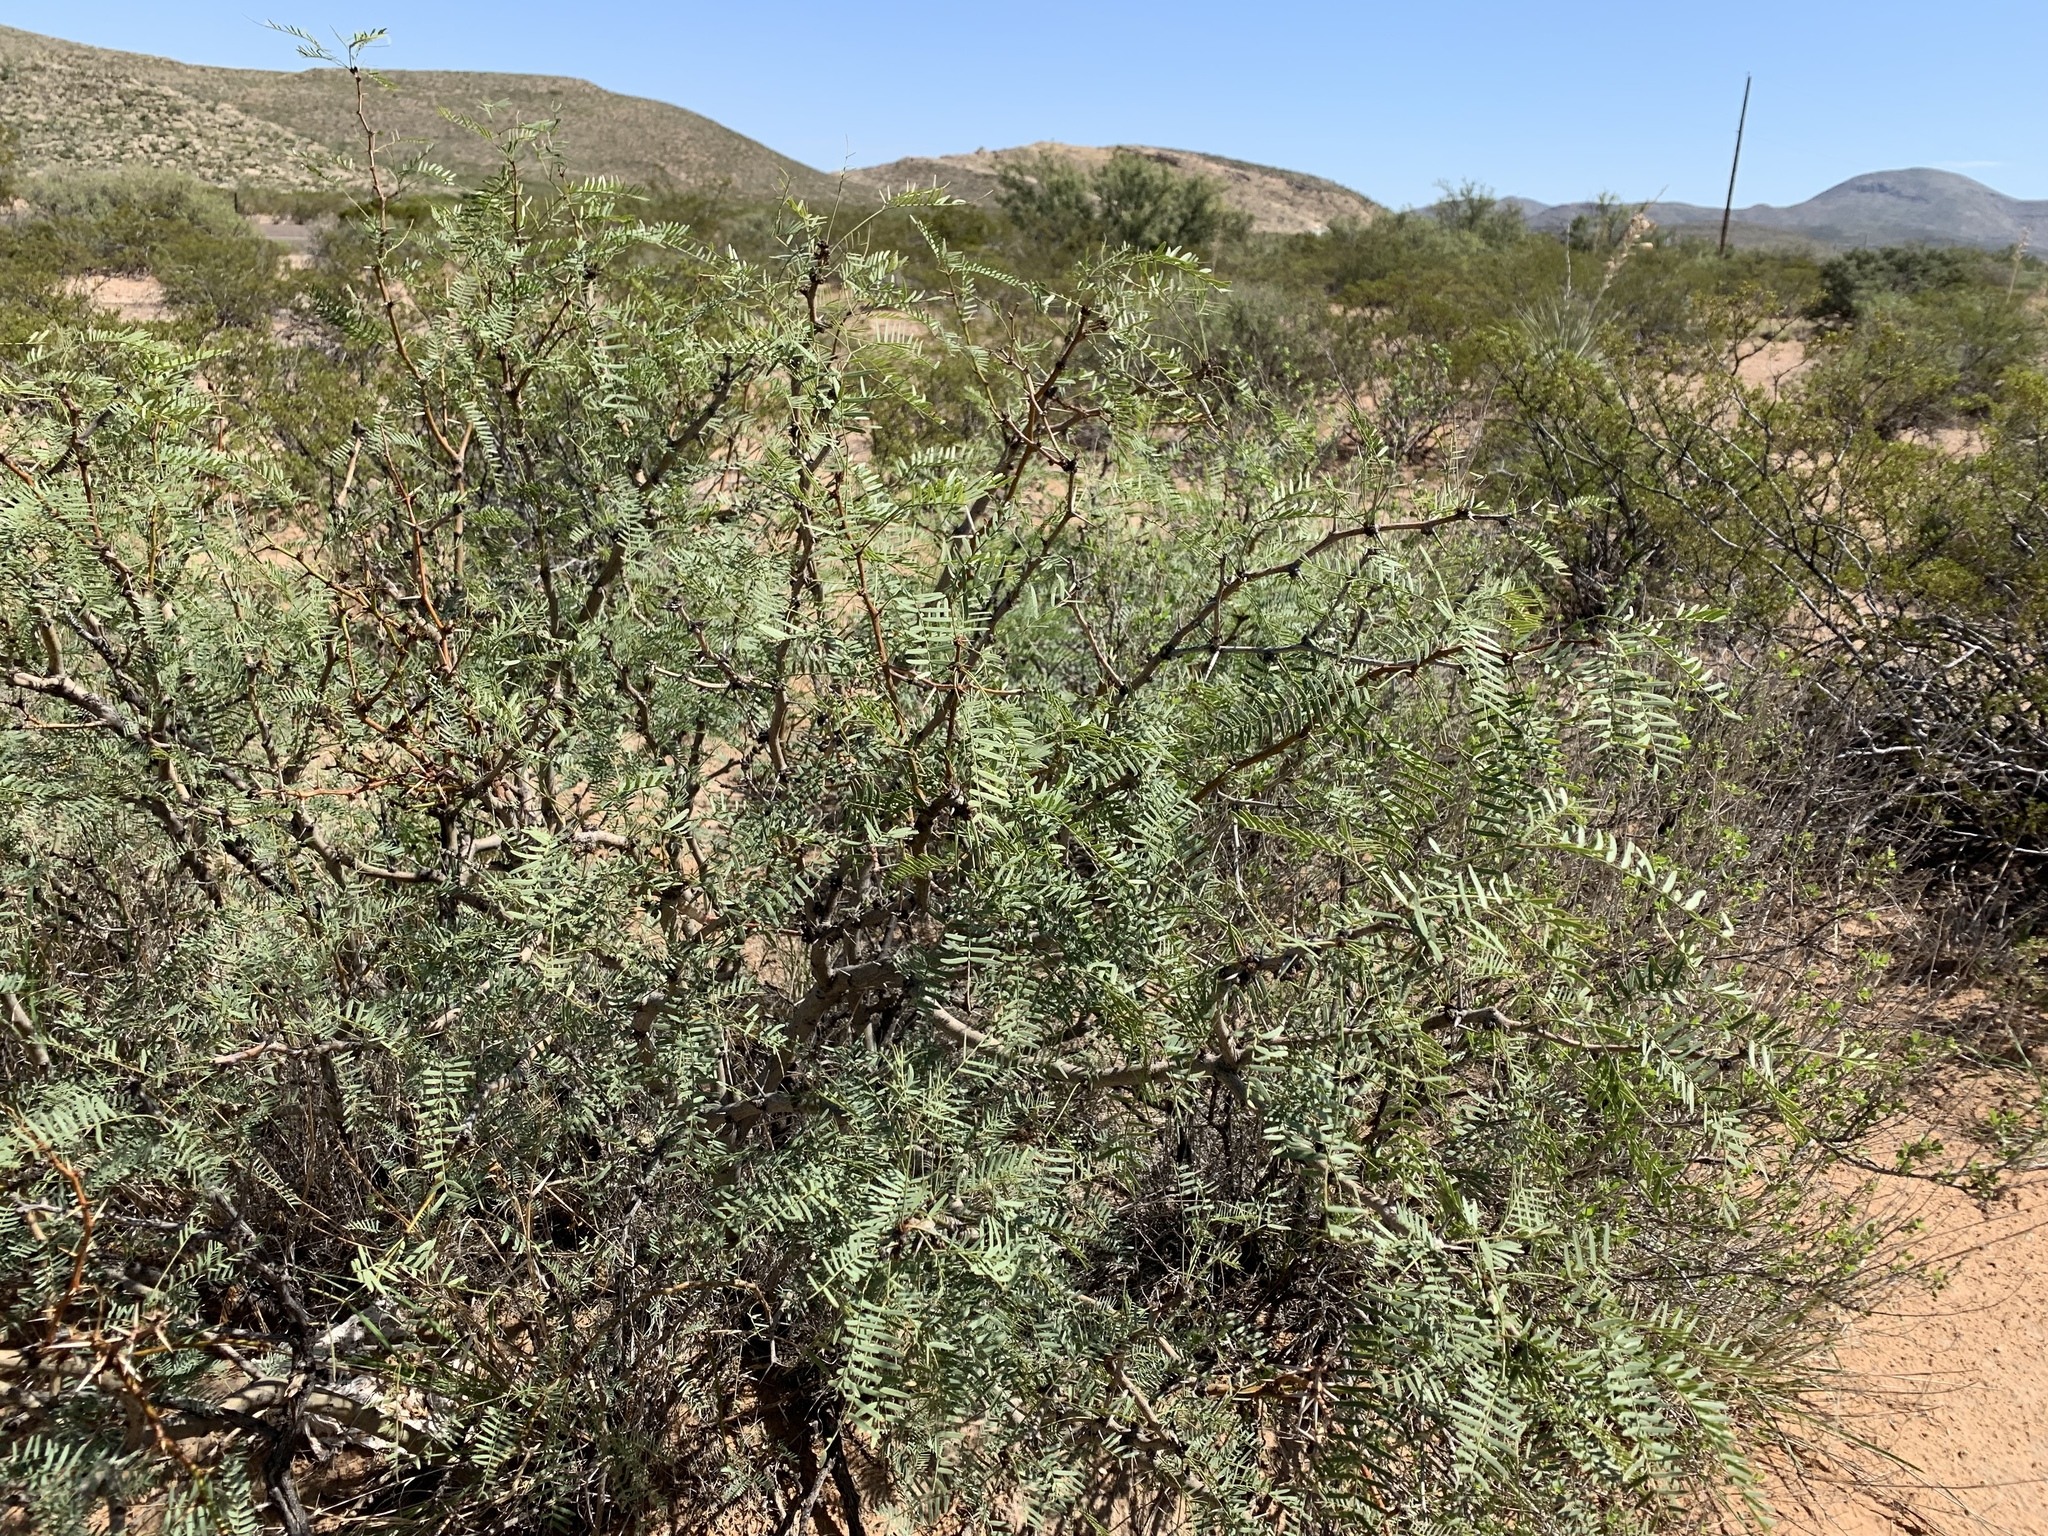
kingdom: Plantae
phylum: Tracheophyta
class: Magnoliopsida
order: Fabales
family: Fabaceae
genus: Prosopis
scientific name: Prosopis glandulosa
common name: Honey mesquite
